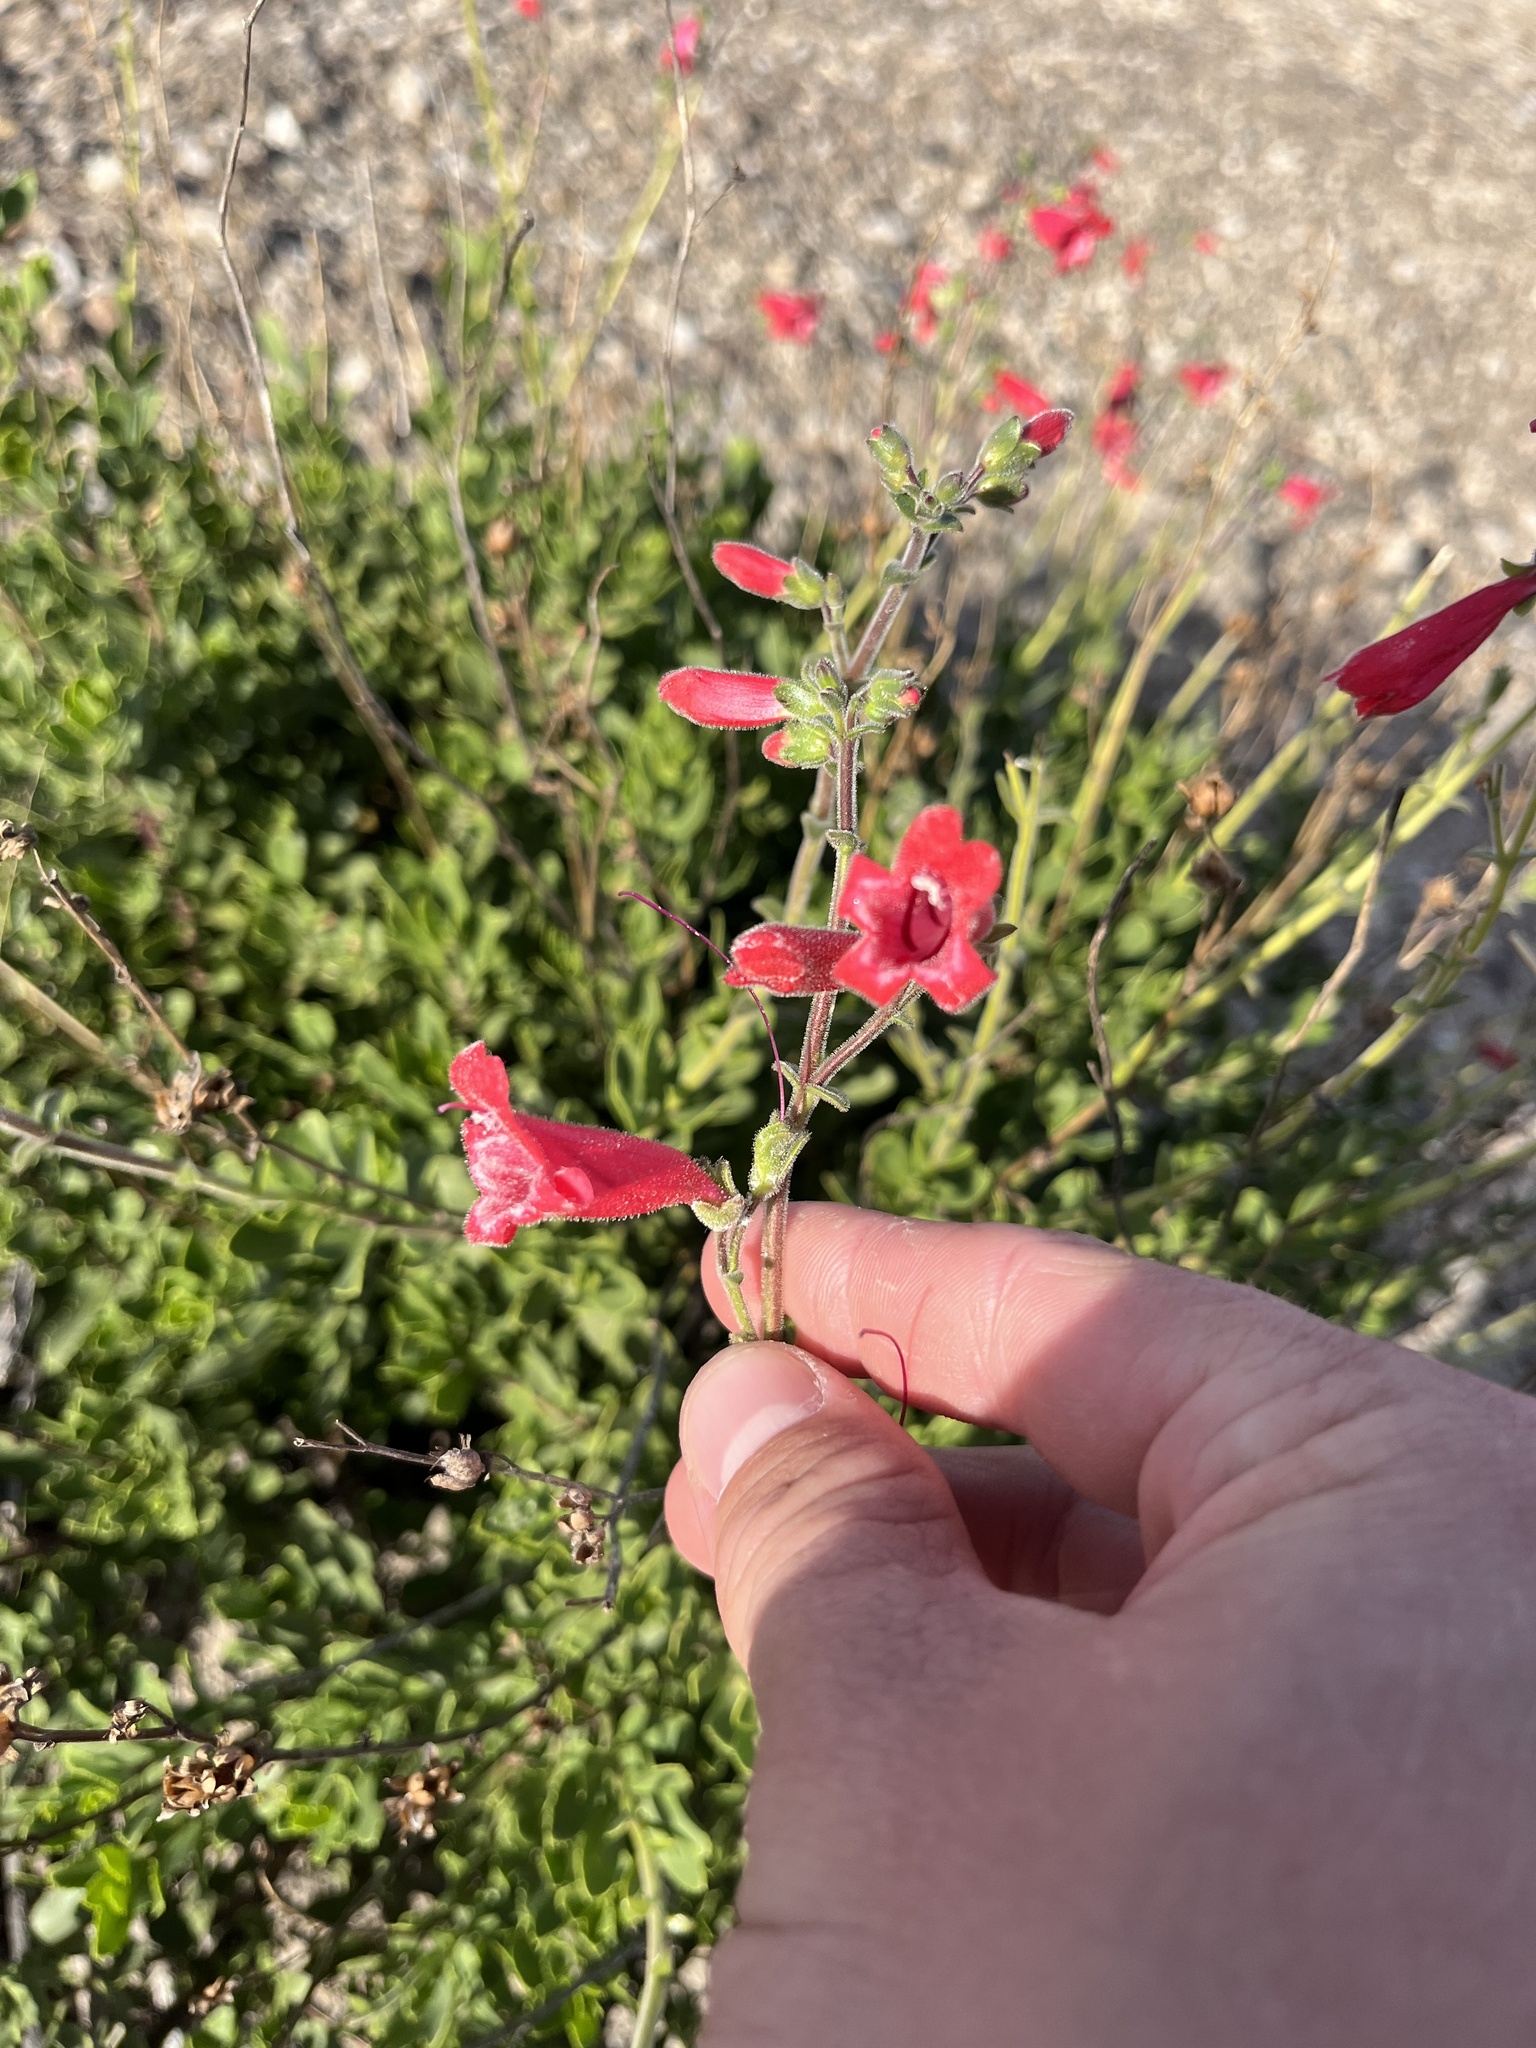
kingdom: Plantae
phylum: Tracheophyta
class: Magnoliopsida
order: Lamiales
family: Plantaginaceae
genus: Penstemon
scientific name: Penstemon baccharifolius
